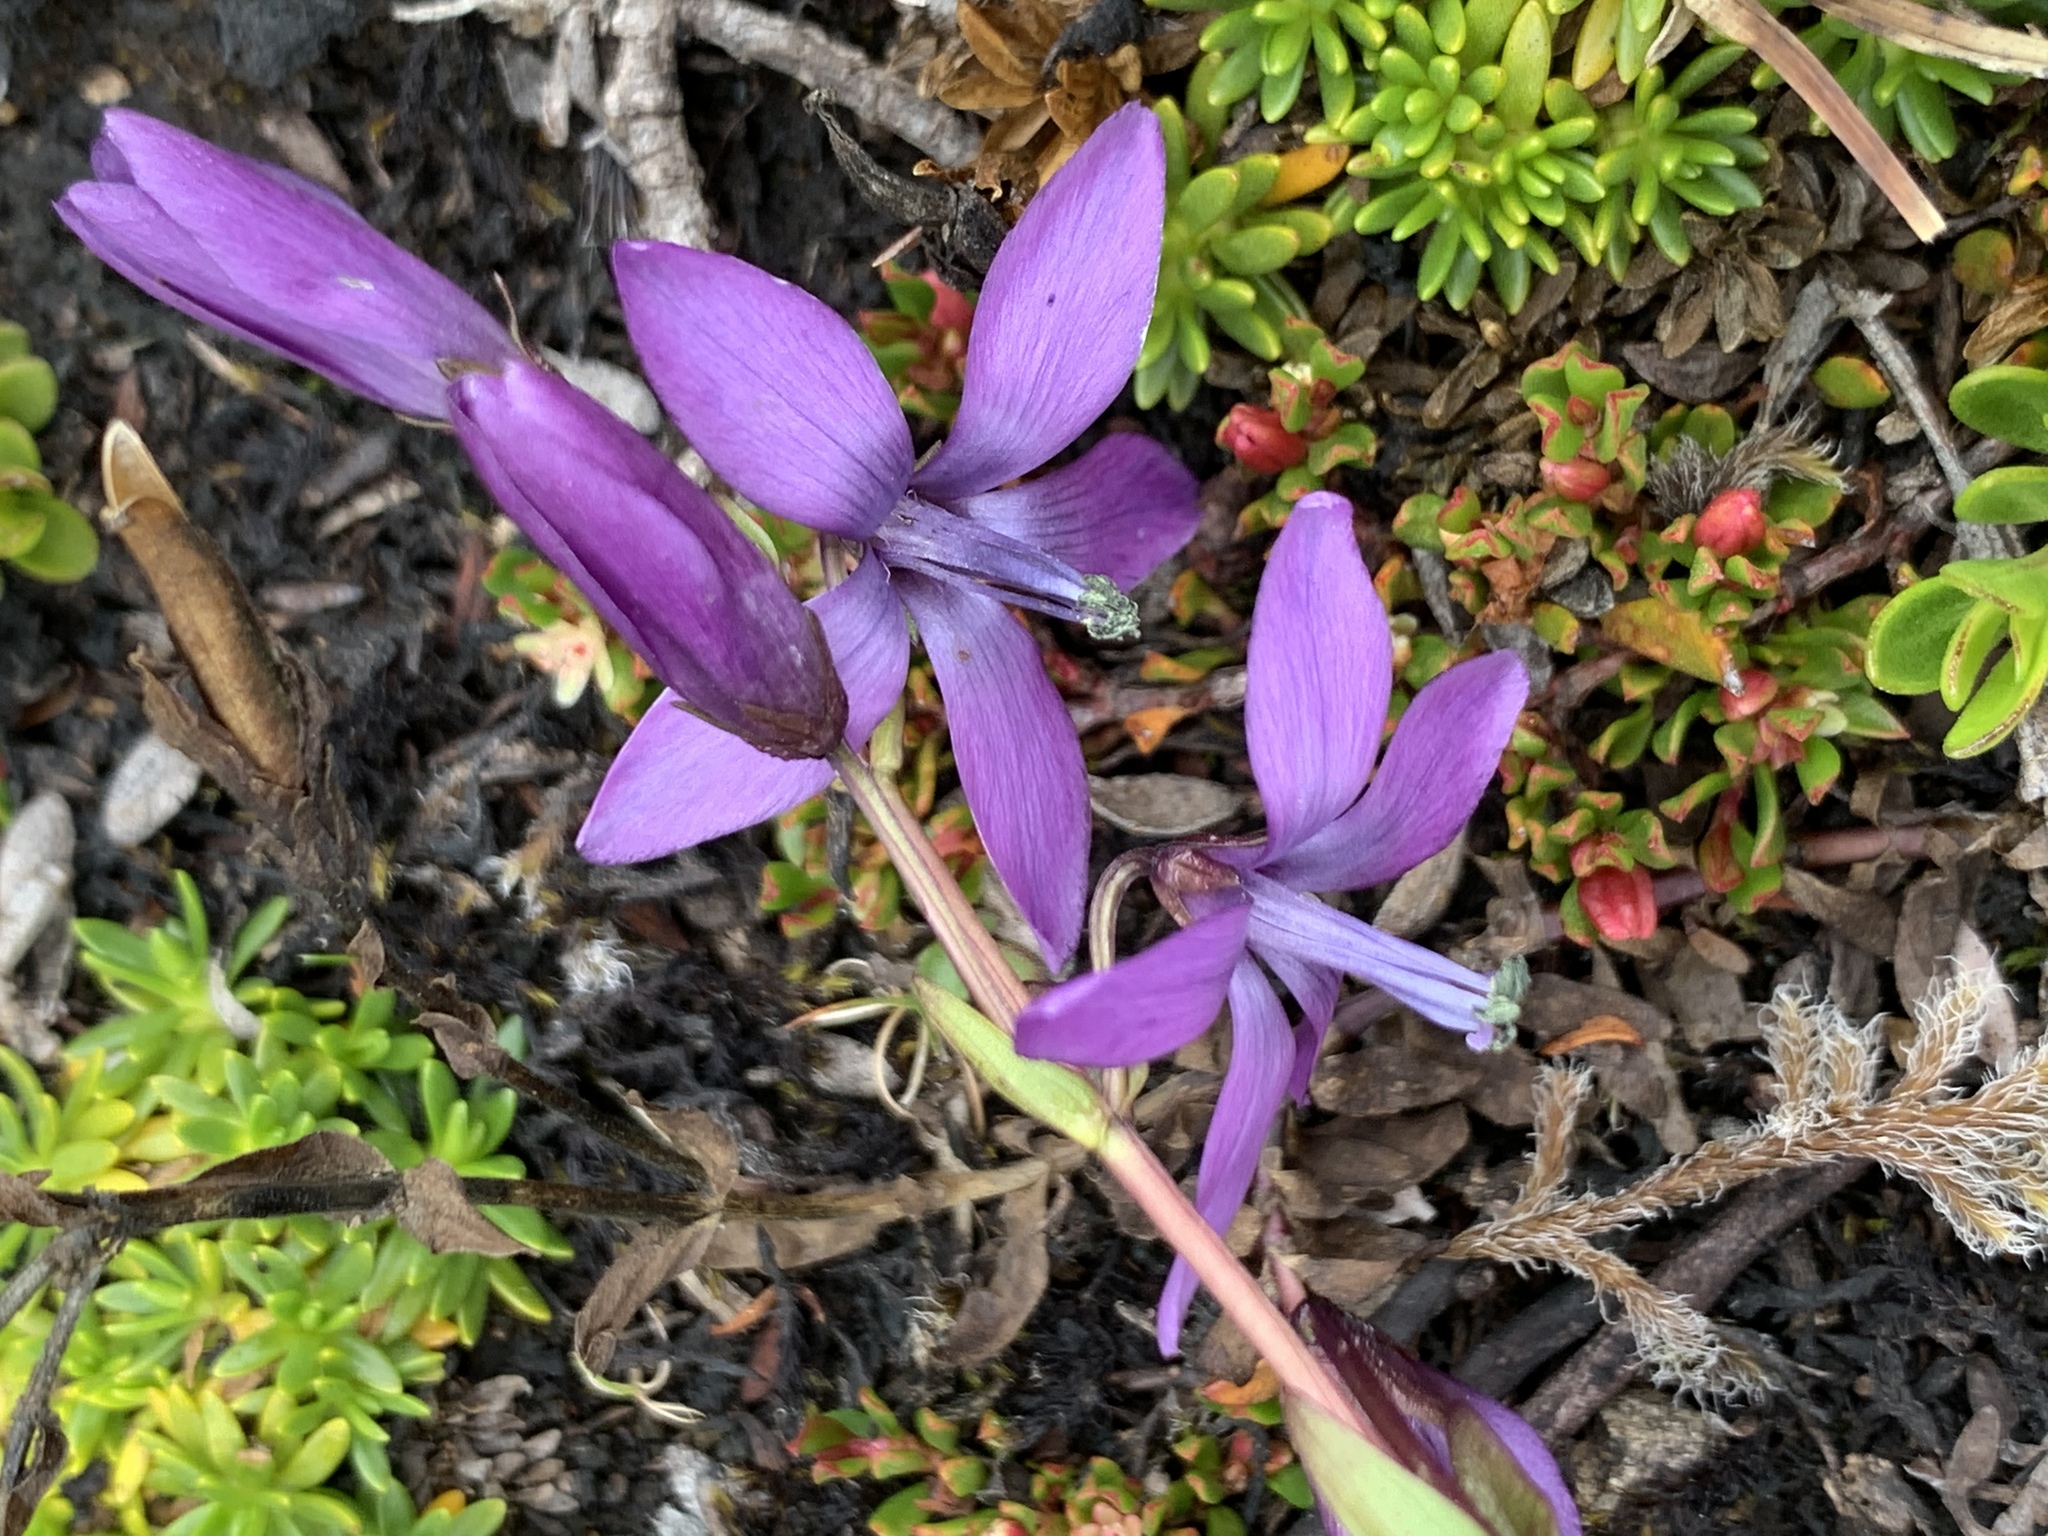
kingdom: Plantae
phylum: Tracheophyta
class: Magnoliopsida
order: Gentianales
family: Gentianaceae
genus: Gentianella
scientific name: Gentianella rapunculoides
